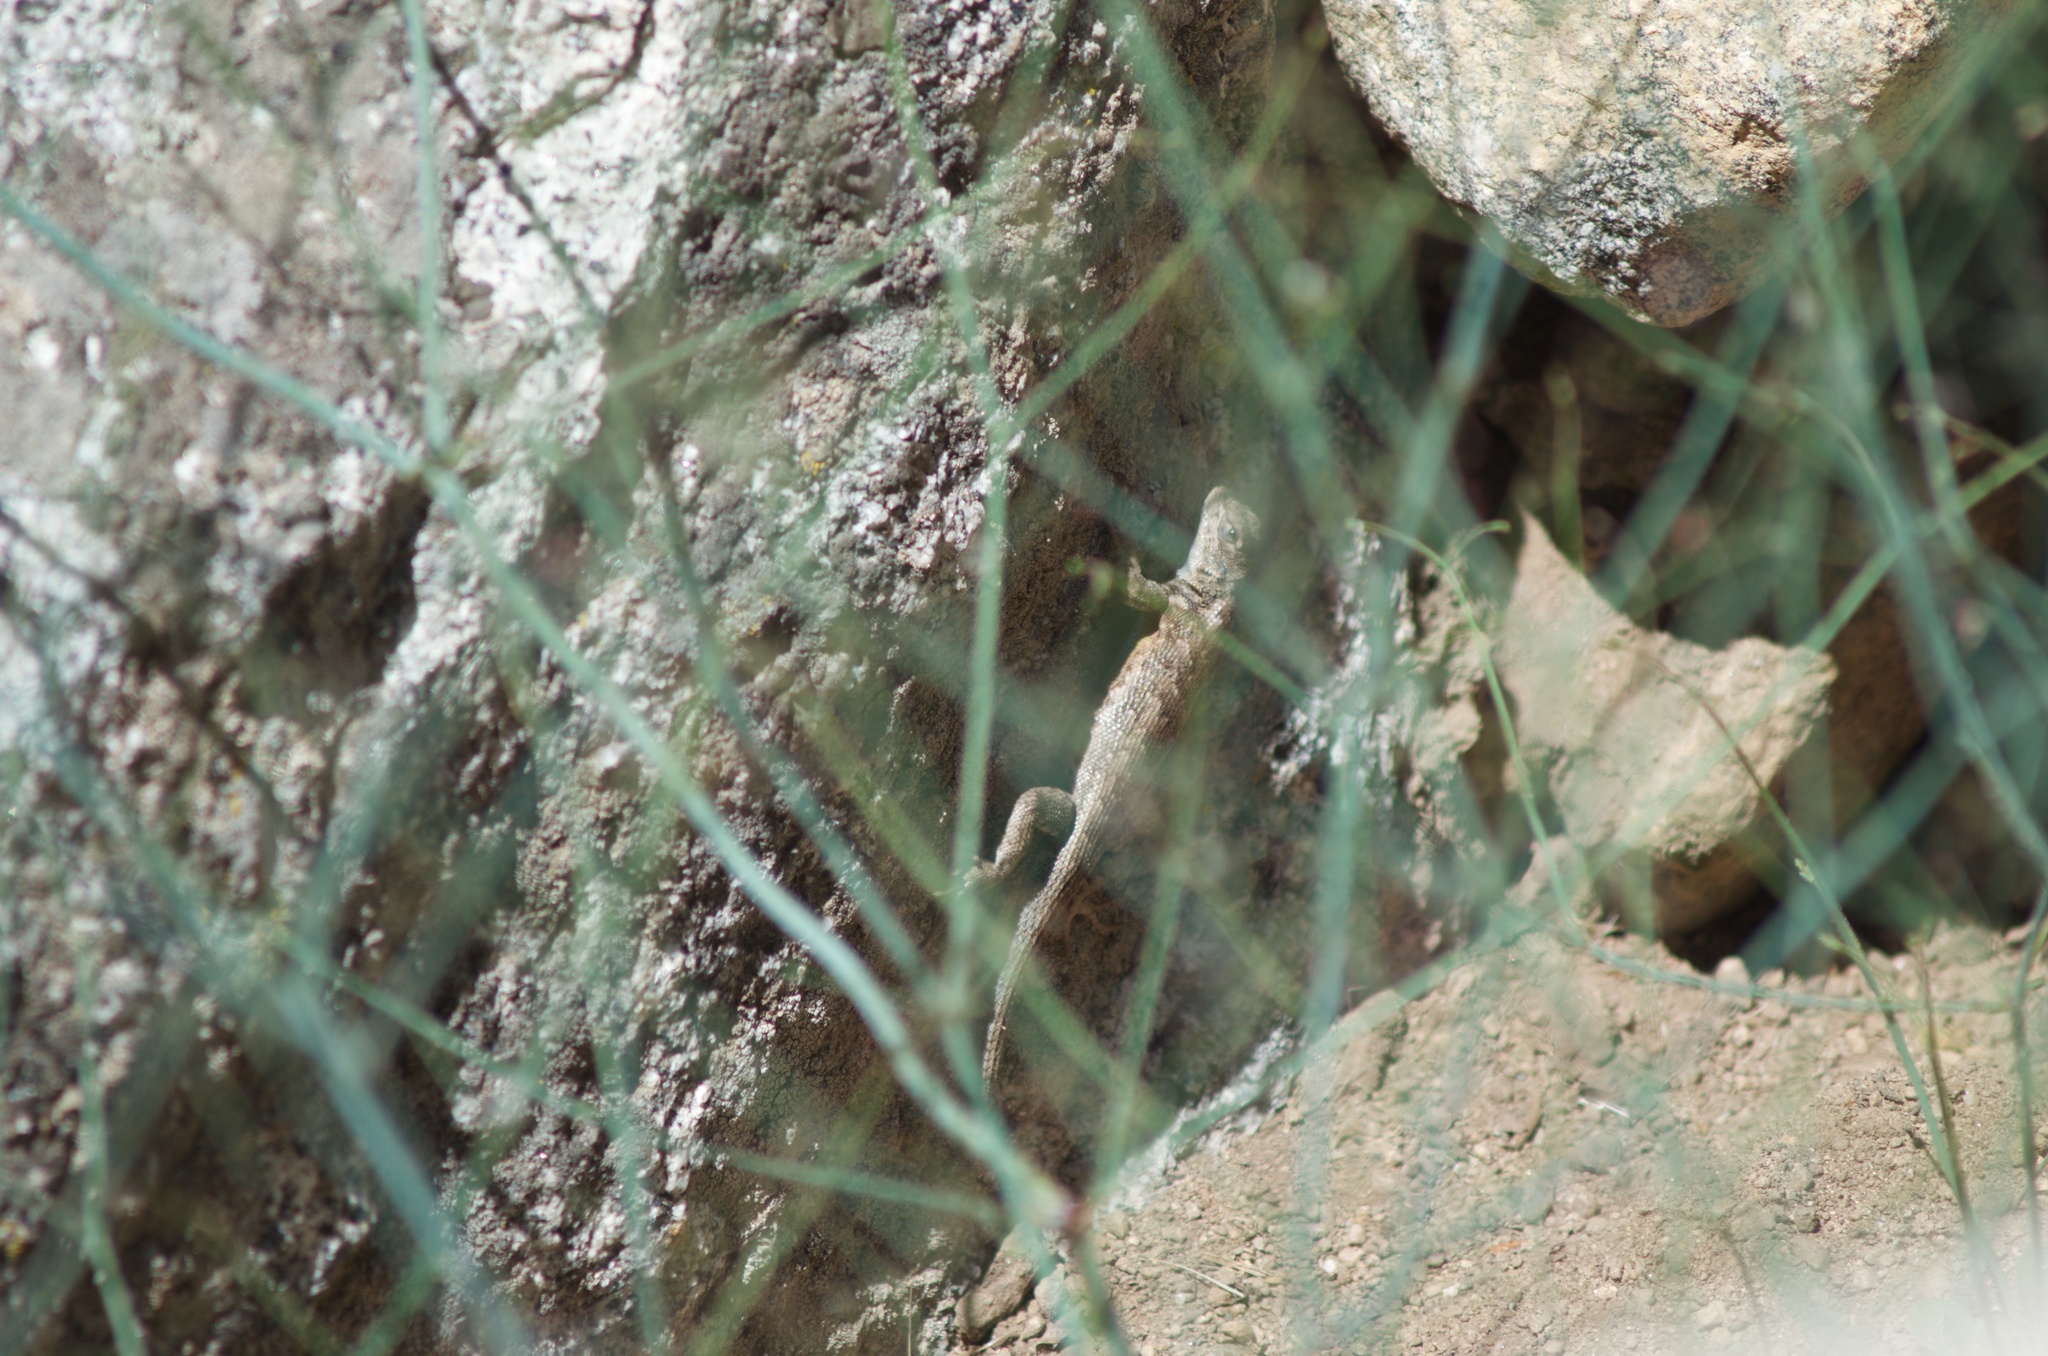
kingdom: Animalia
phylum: Chordata
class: Squamata
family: Phrynosomatidae
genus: Sceloporus
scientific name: Sceloporus graciosus
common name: Sagebrush lizard
